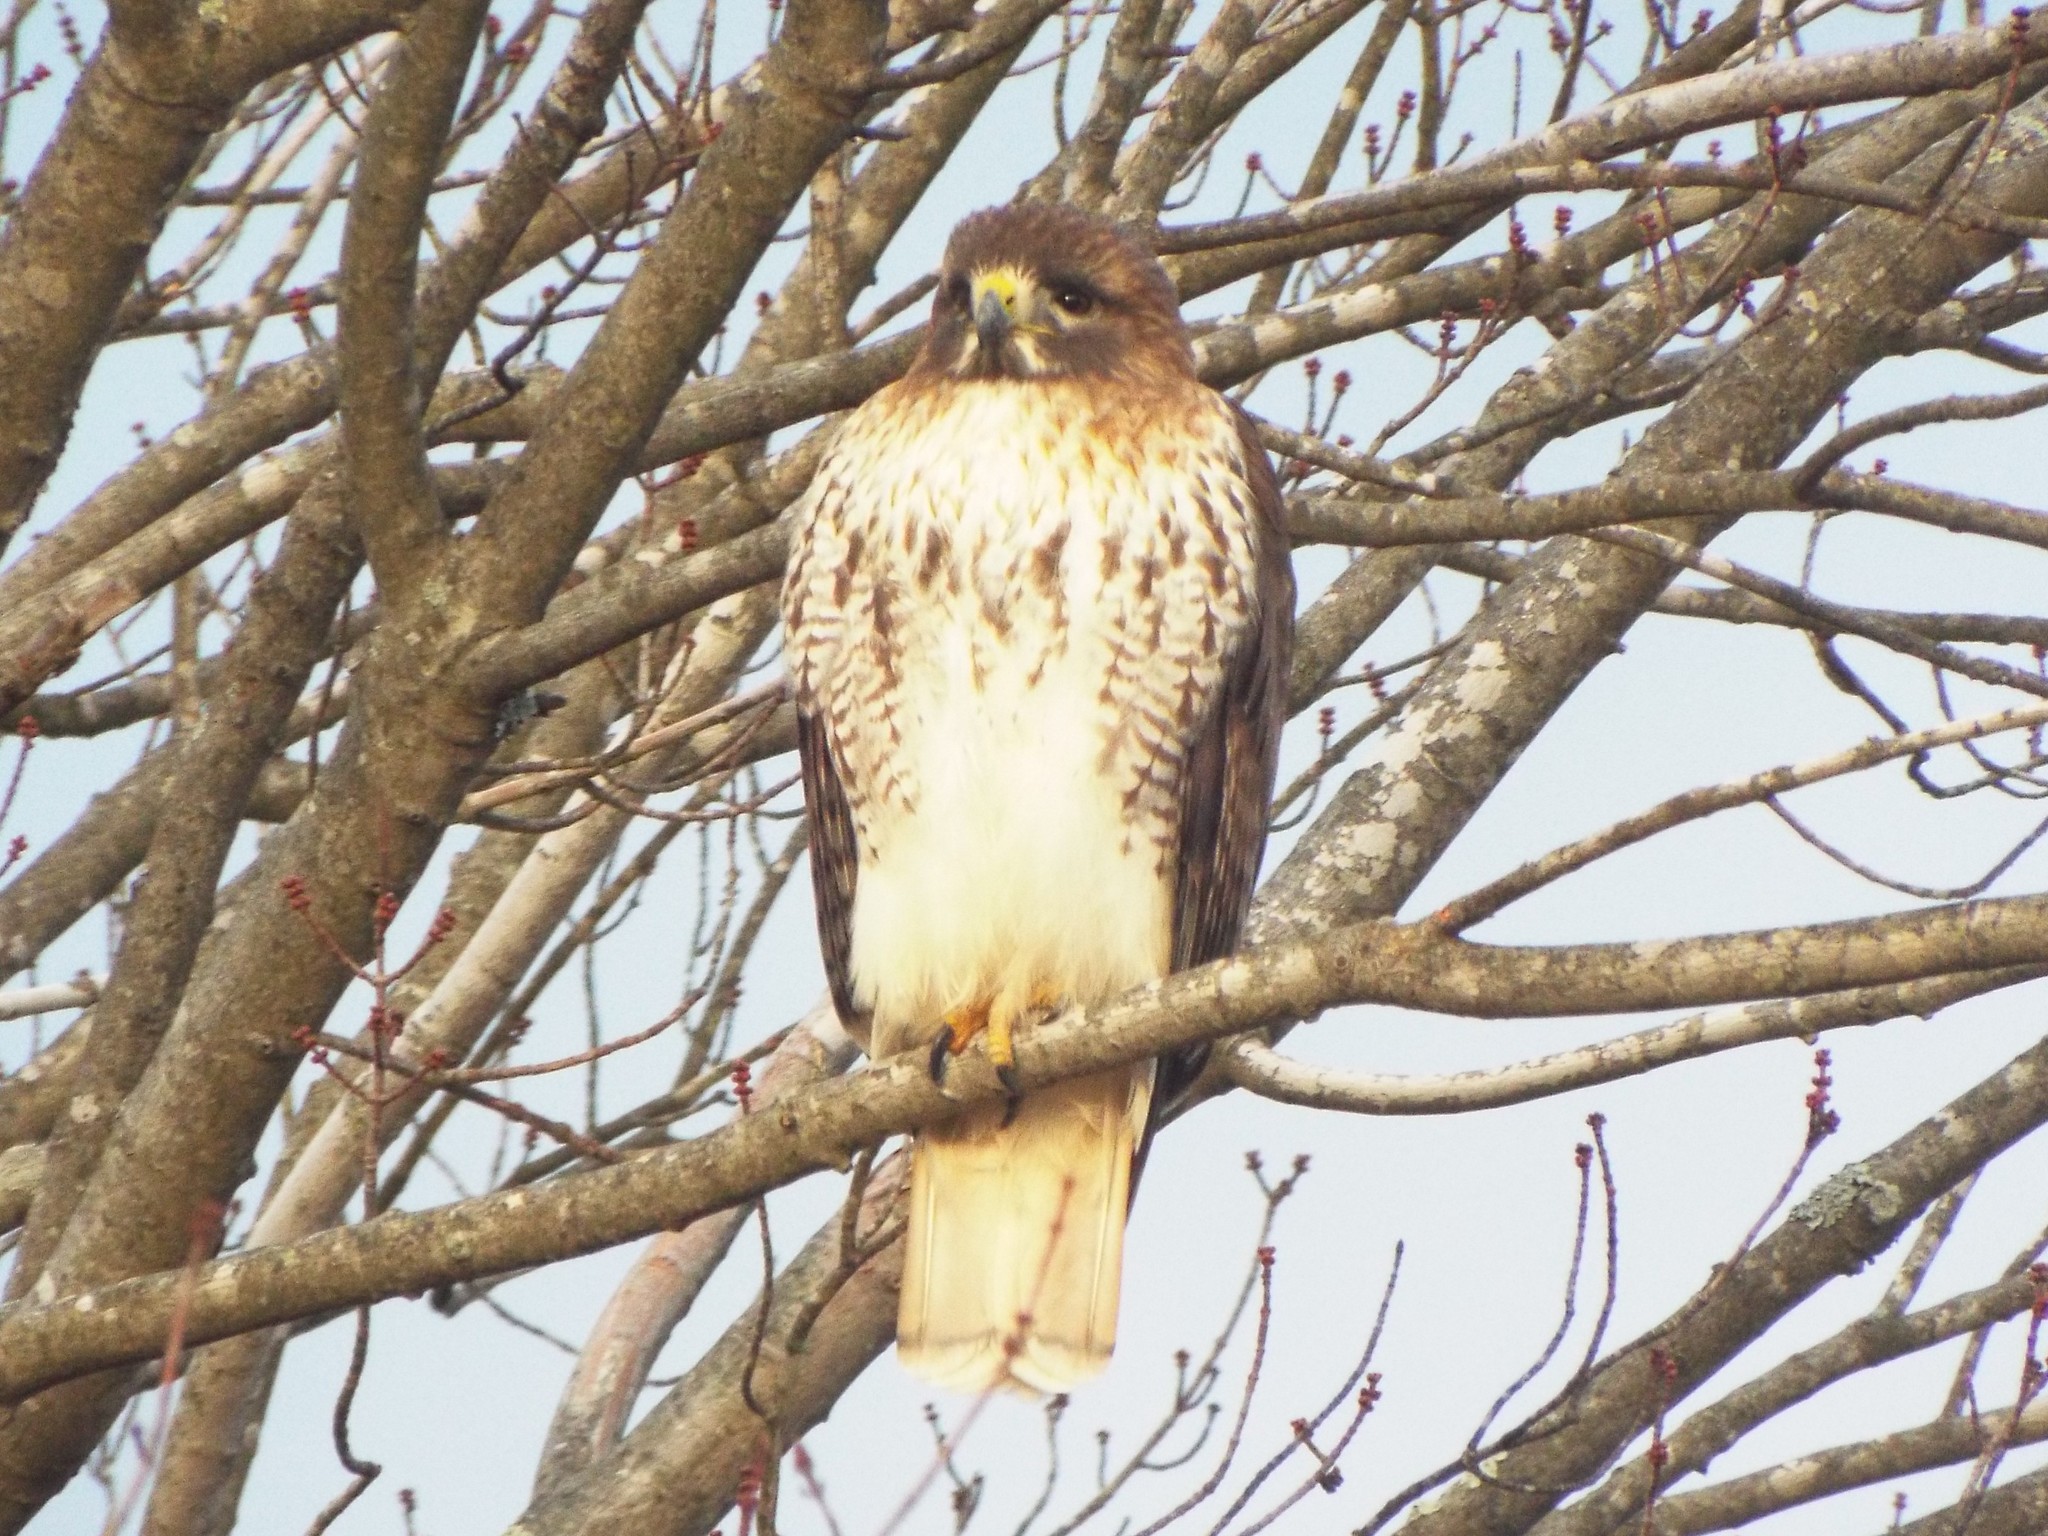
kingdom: Animalia
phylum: Chordata
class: Aves
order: Accipitriformes
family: Accipitridae
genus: Buteo
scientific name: Buteo jamaicensis
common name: Red-tailed hawk
